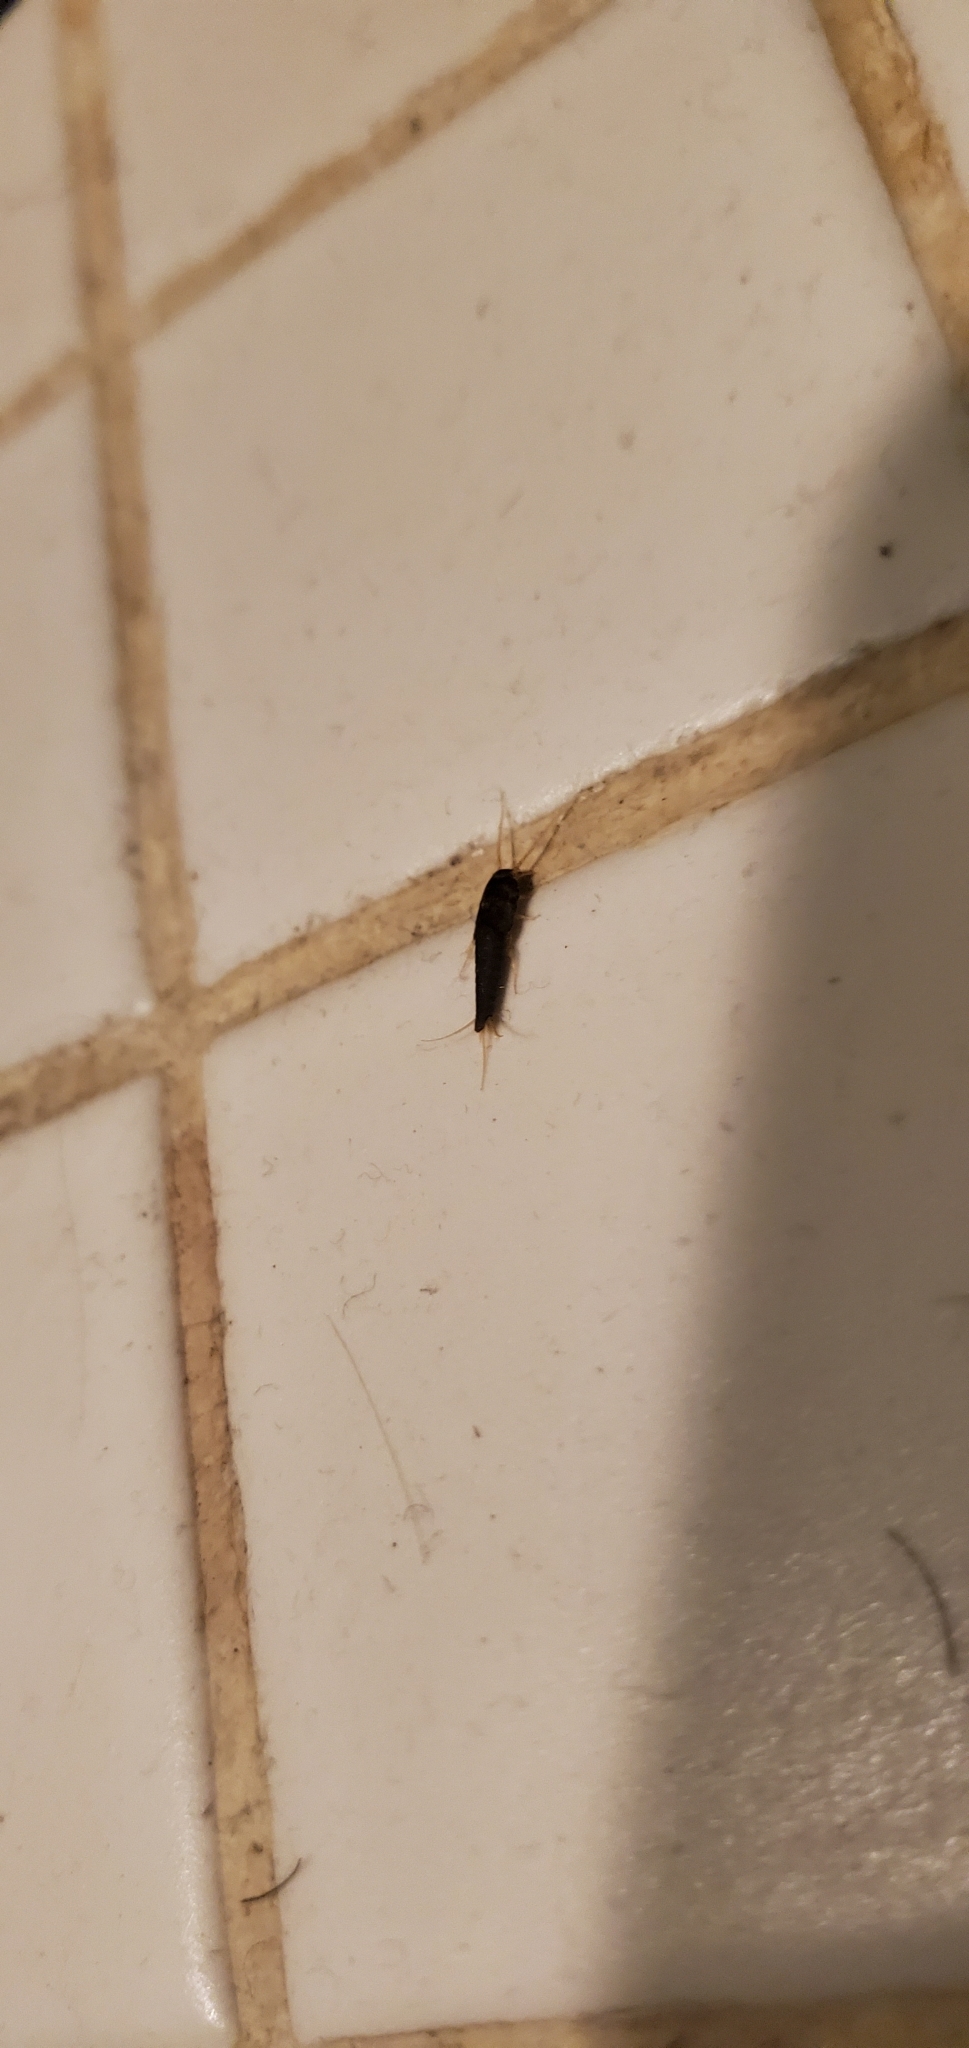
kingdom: Animalia
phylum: Arthropoda
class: Insecta
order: Zygentoma
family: Lepismatidae
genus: Lepisma
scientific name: Lepisma saccharinum
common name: Silverfish
